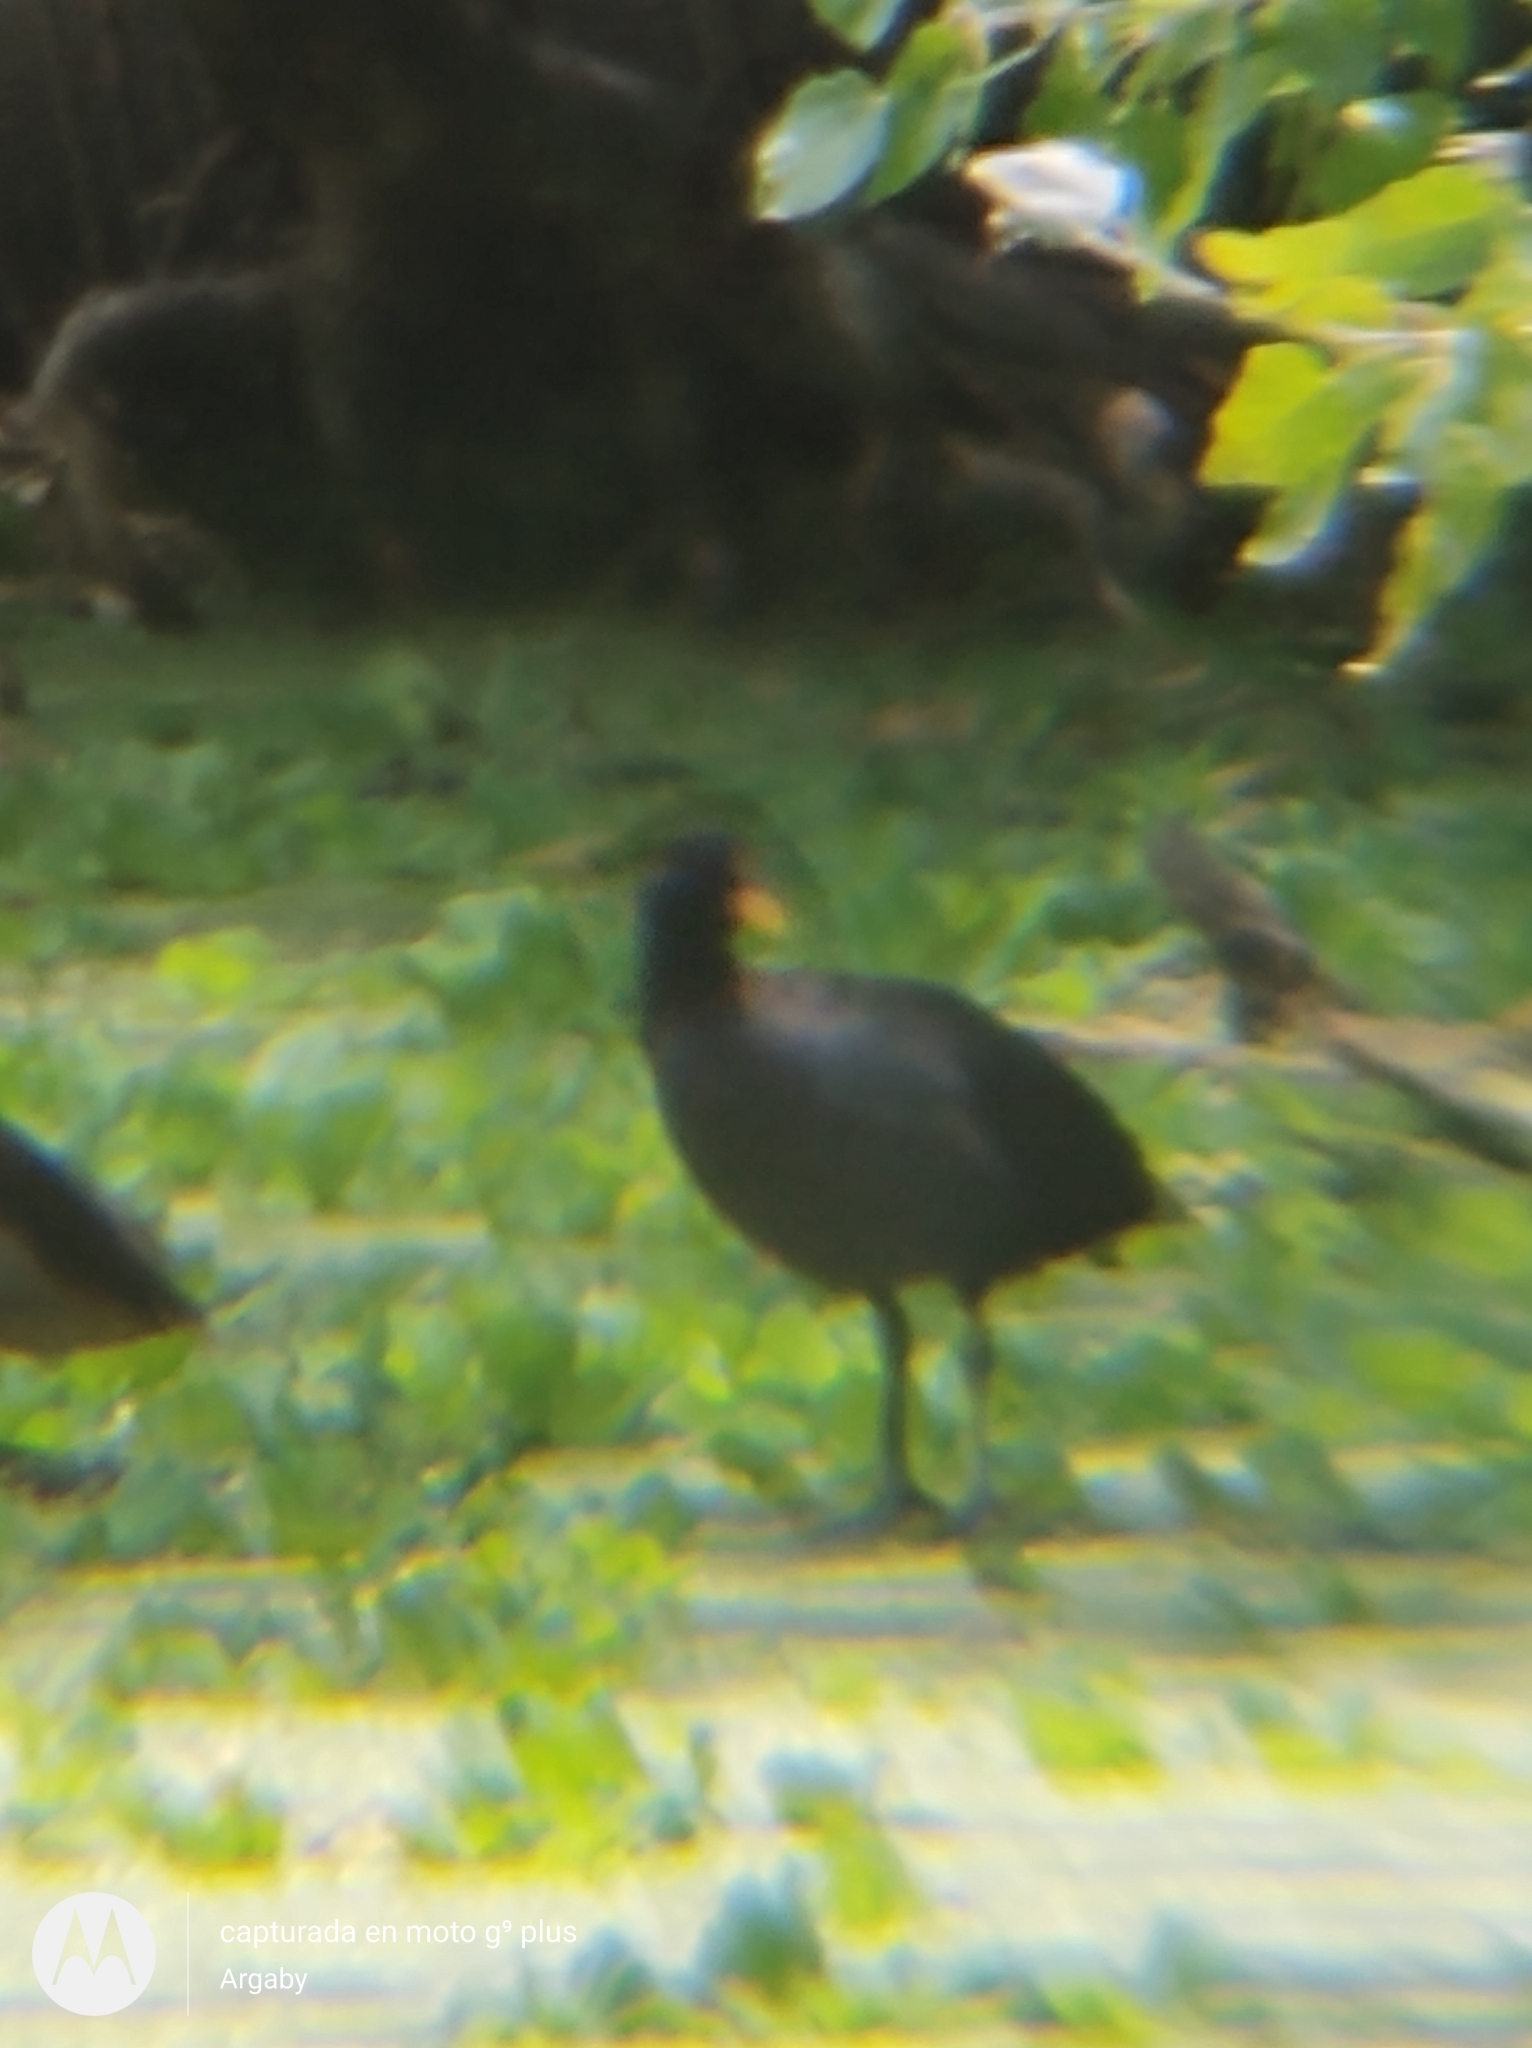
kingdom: Animalia
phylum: Chordata
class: Aves
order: Gruiformes
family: Rallidae
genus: Fulica
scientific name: Fulica rufifrons
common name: Red-fronted coot
